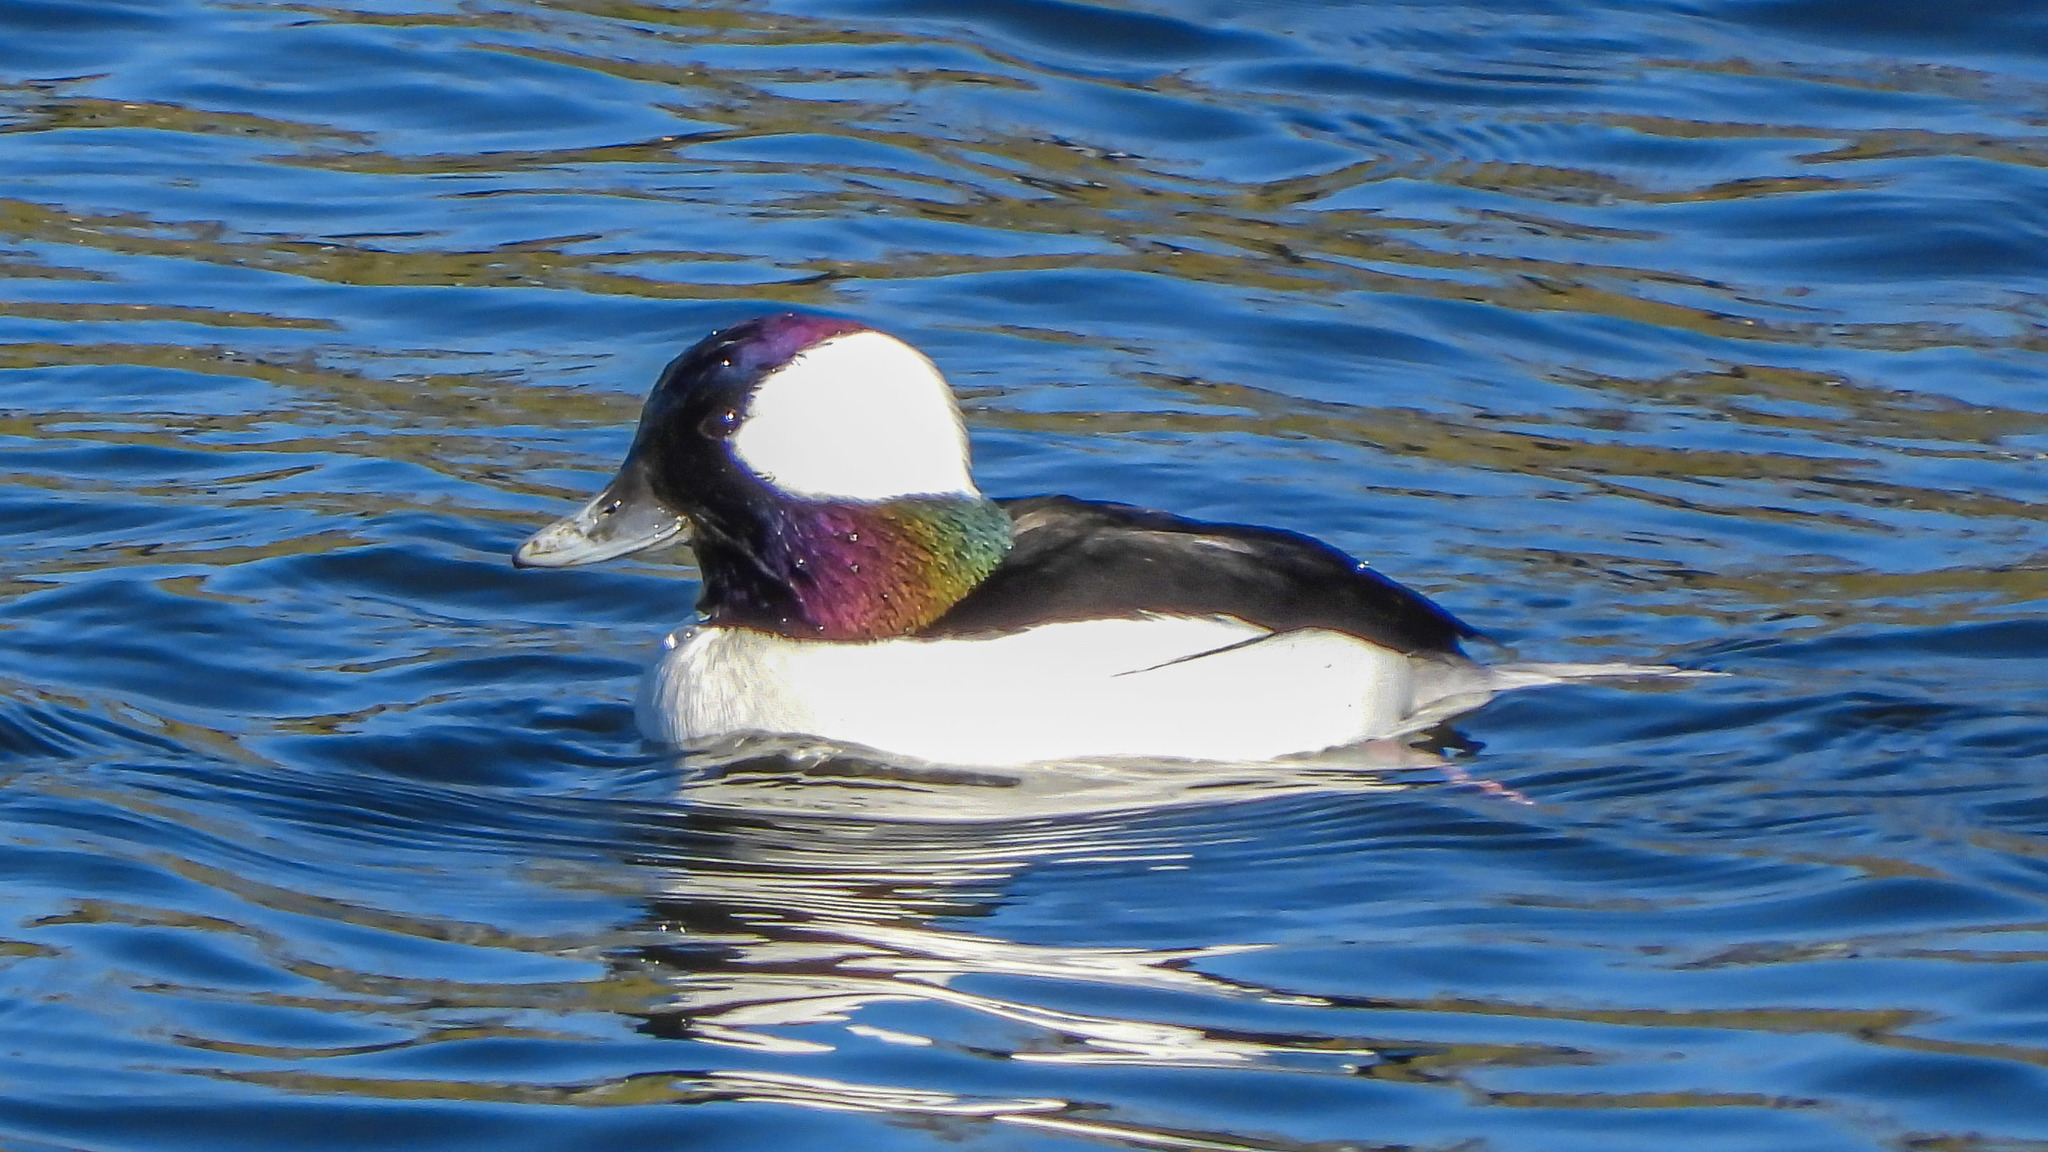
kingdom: Animalia
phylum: Chordata
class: Aves
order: Anseriformes
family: Anatidae
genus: Bucephala
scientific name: Bucephala albeola
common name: Bufflehead
